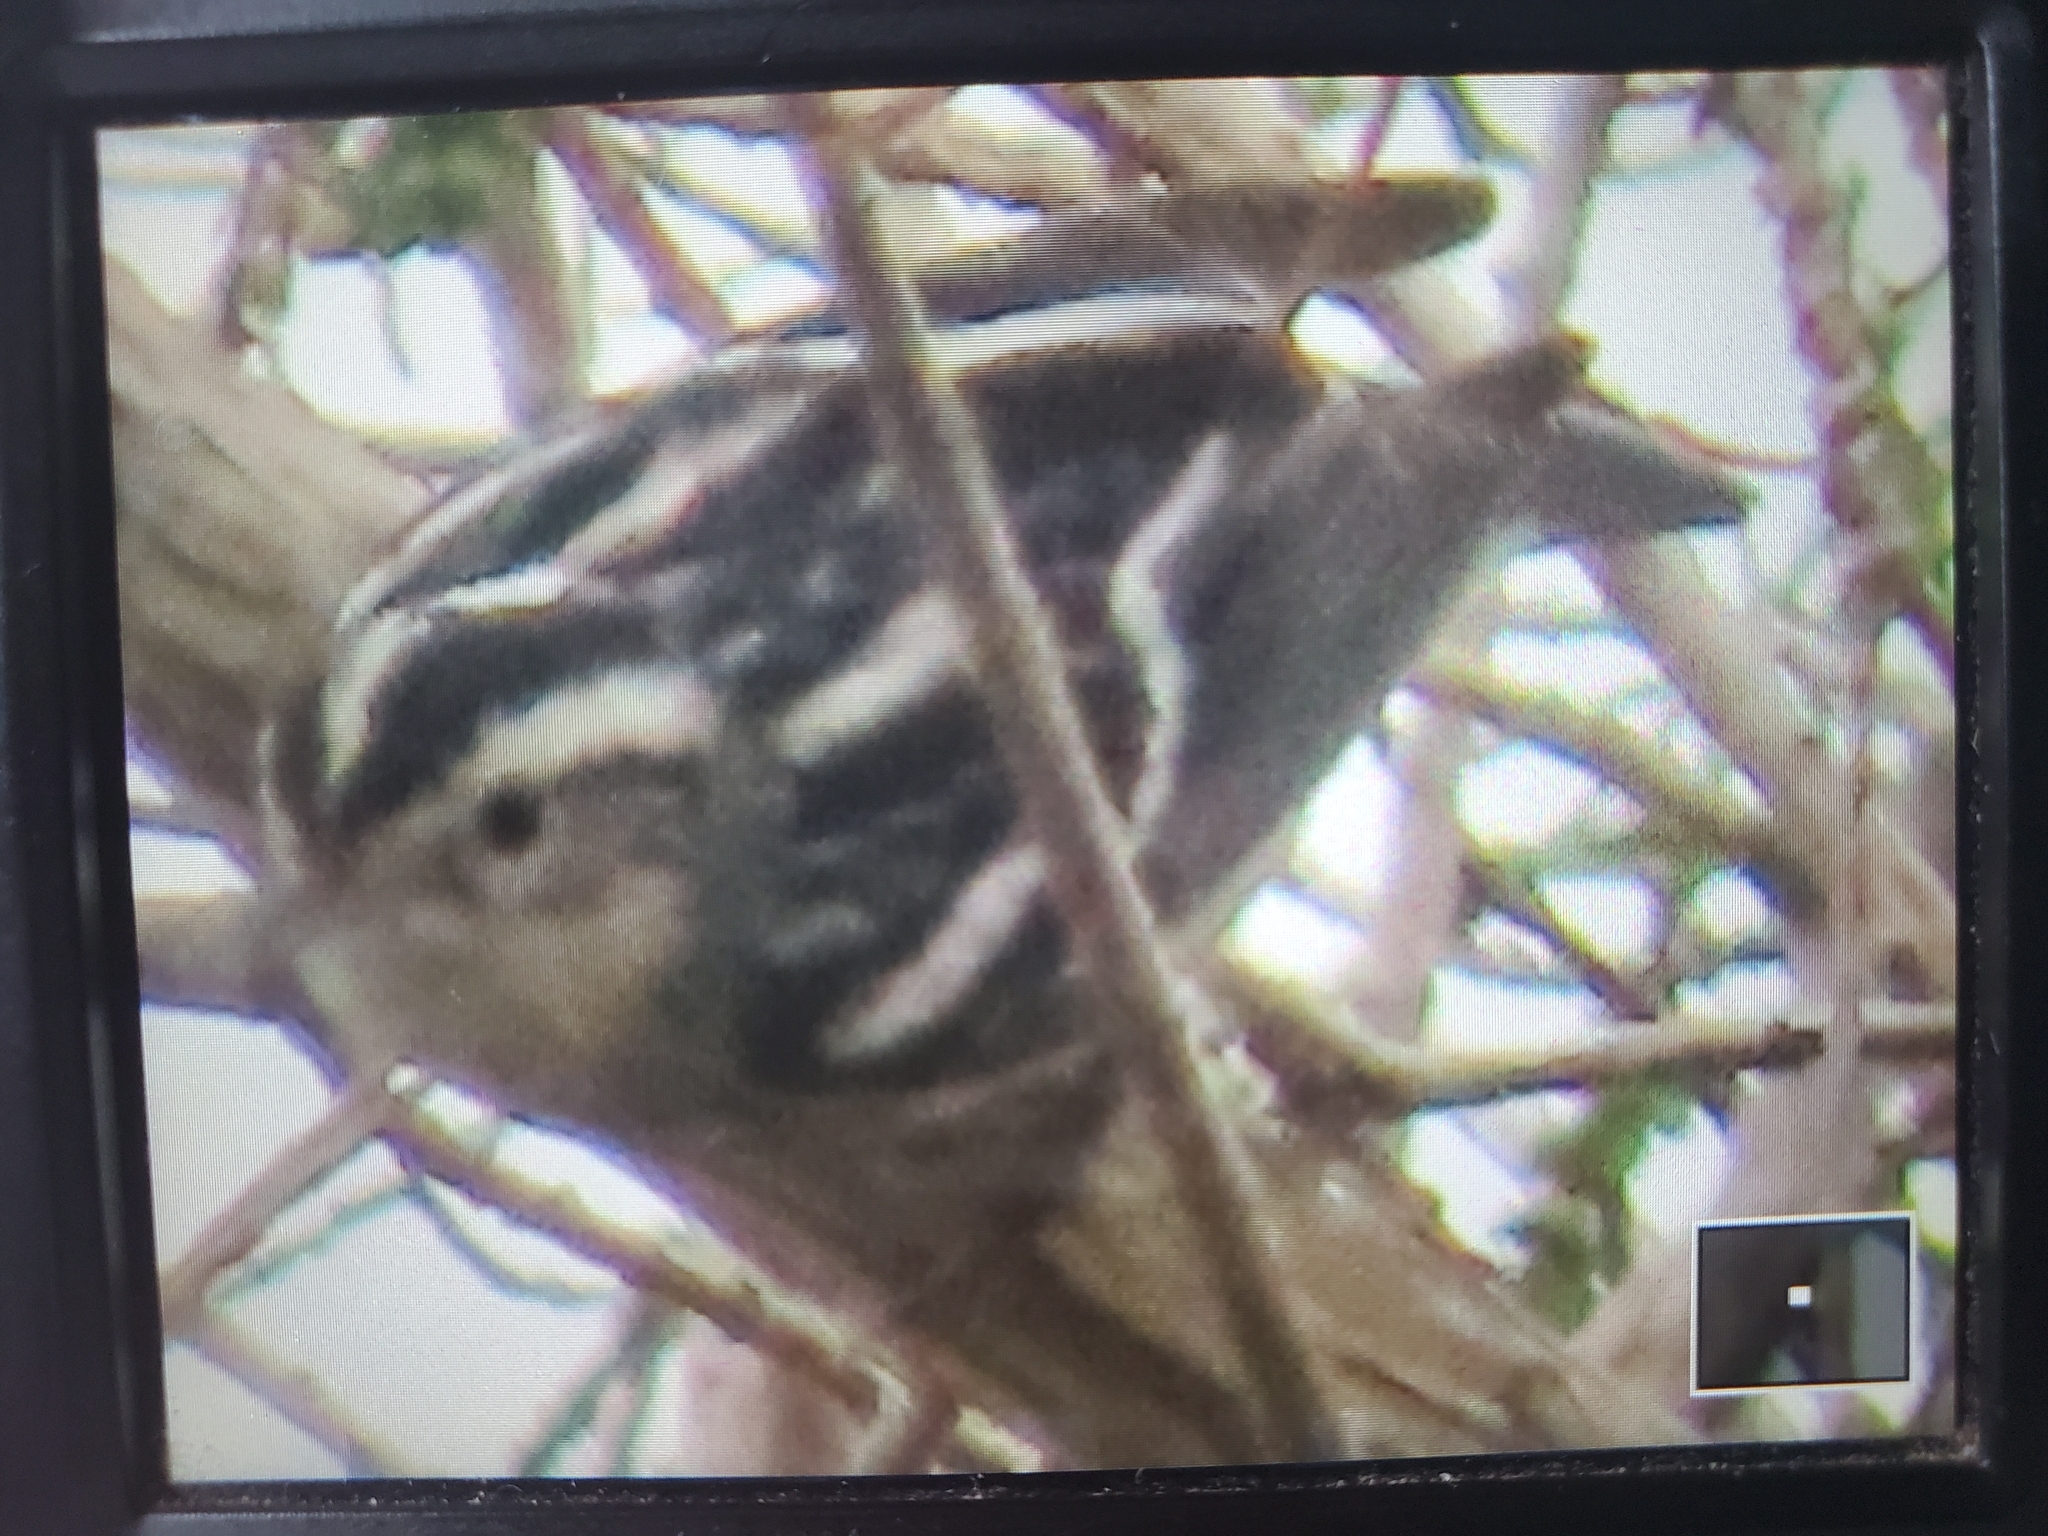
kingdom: Animalia
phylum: Chordata
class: Aves
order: Passeriformes
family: Parulidae
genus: Mniotilta
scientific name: Mniotilta varia
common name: Black-and-white warbler
